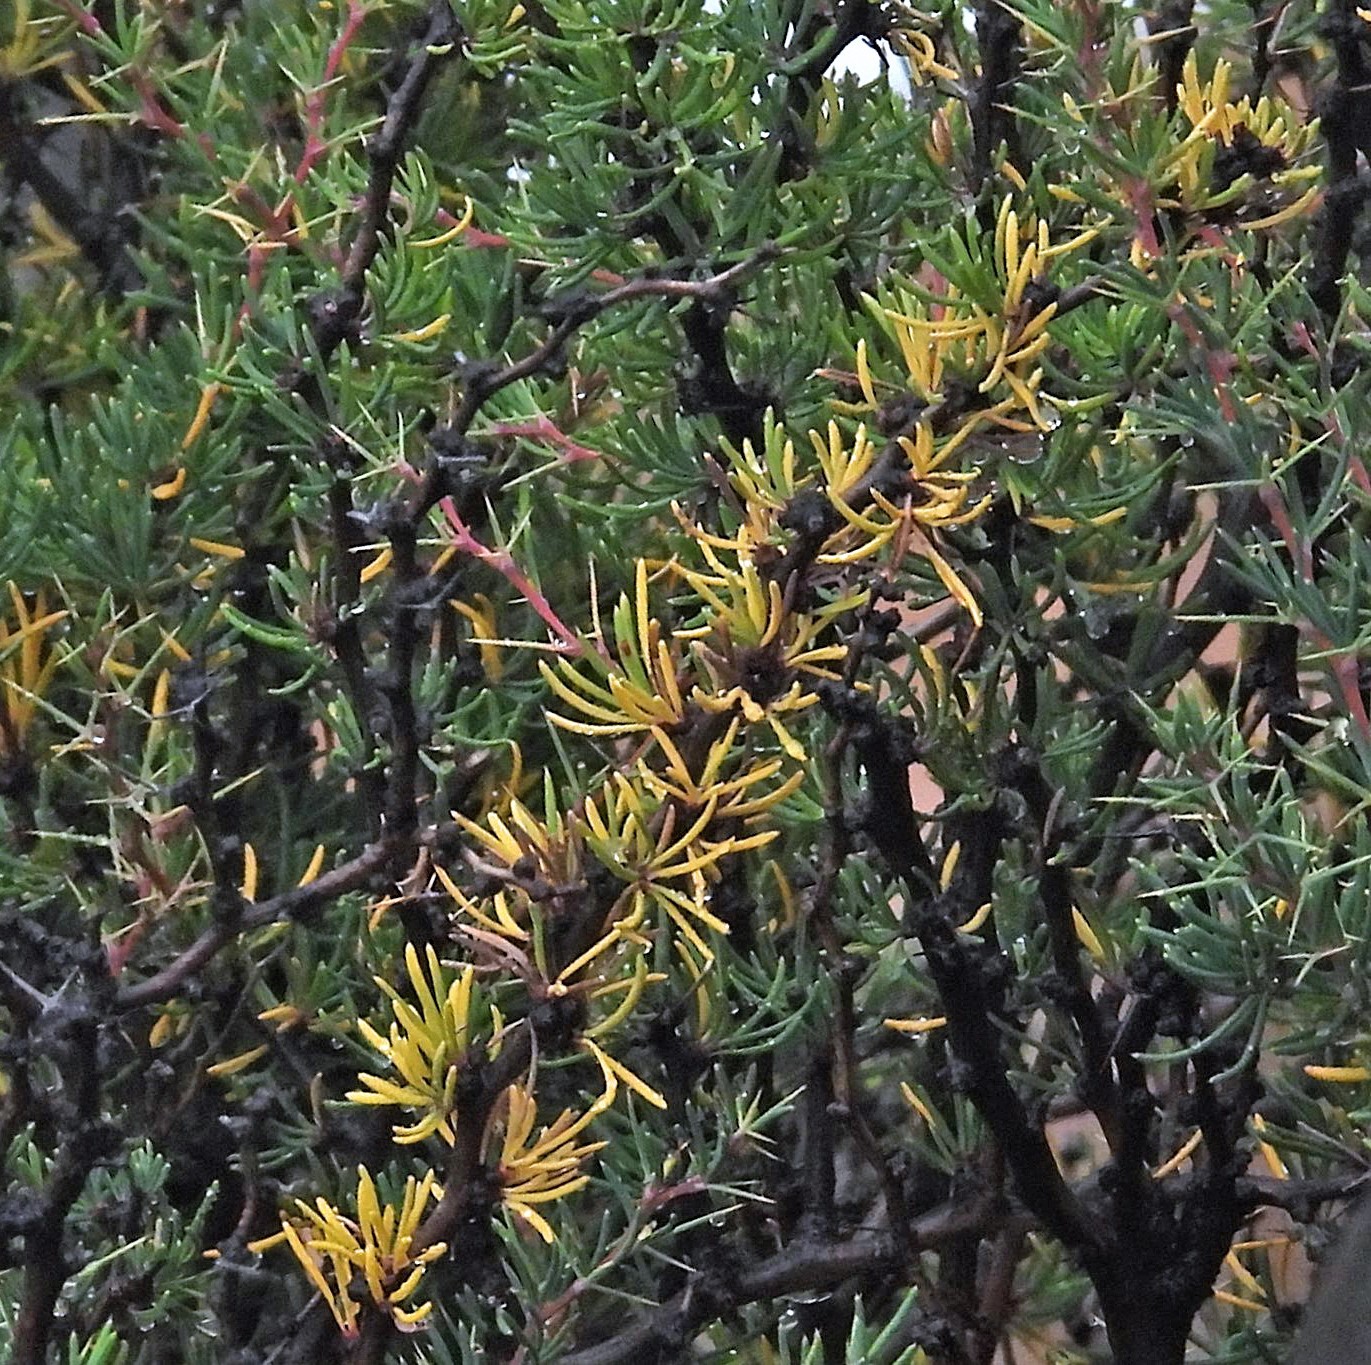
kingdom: Plantae
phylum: Tracheophyta
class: Magnoliopsida
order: Ranunculales
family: Berberidaceae
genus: Berberis
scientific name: Berberis empetrifolia
